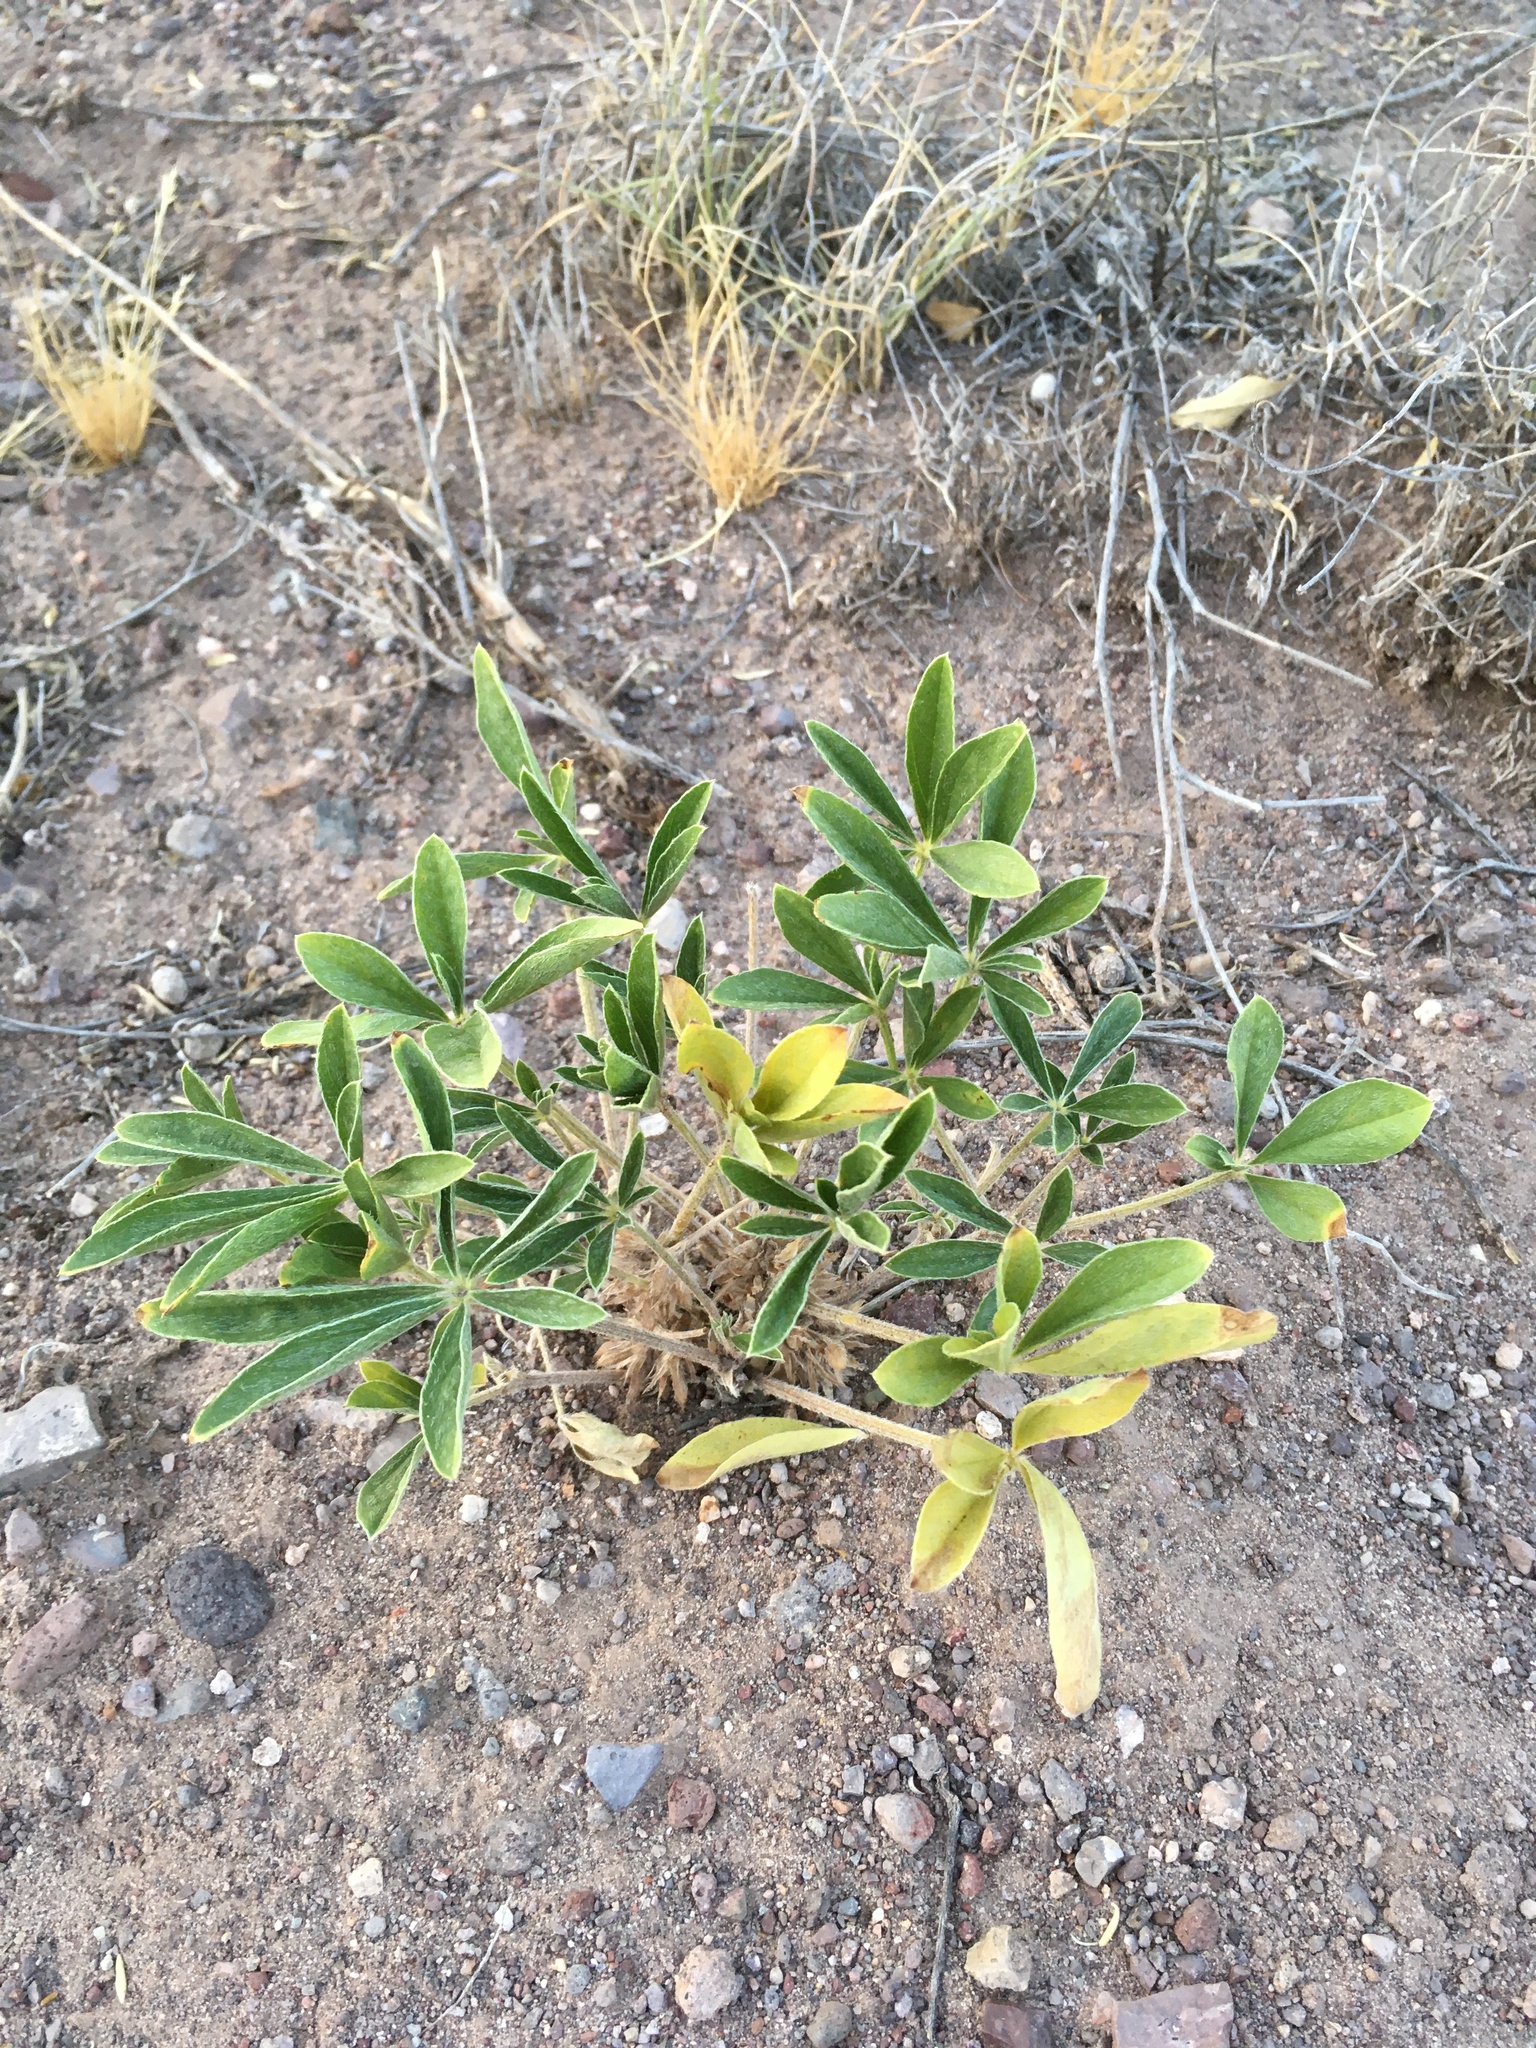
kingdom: Plantae
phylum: Tracheophyta
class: Magnoliopsida
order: Fabales
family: Fabaceae
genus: Pediomelum
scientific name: Pediomelum hypogaeum
